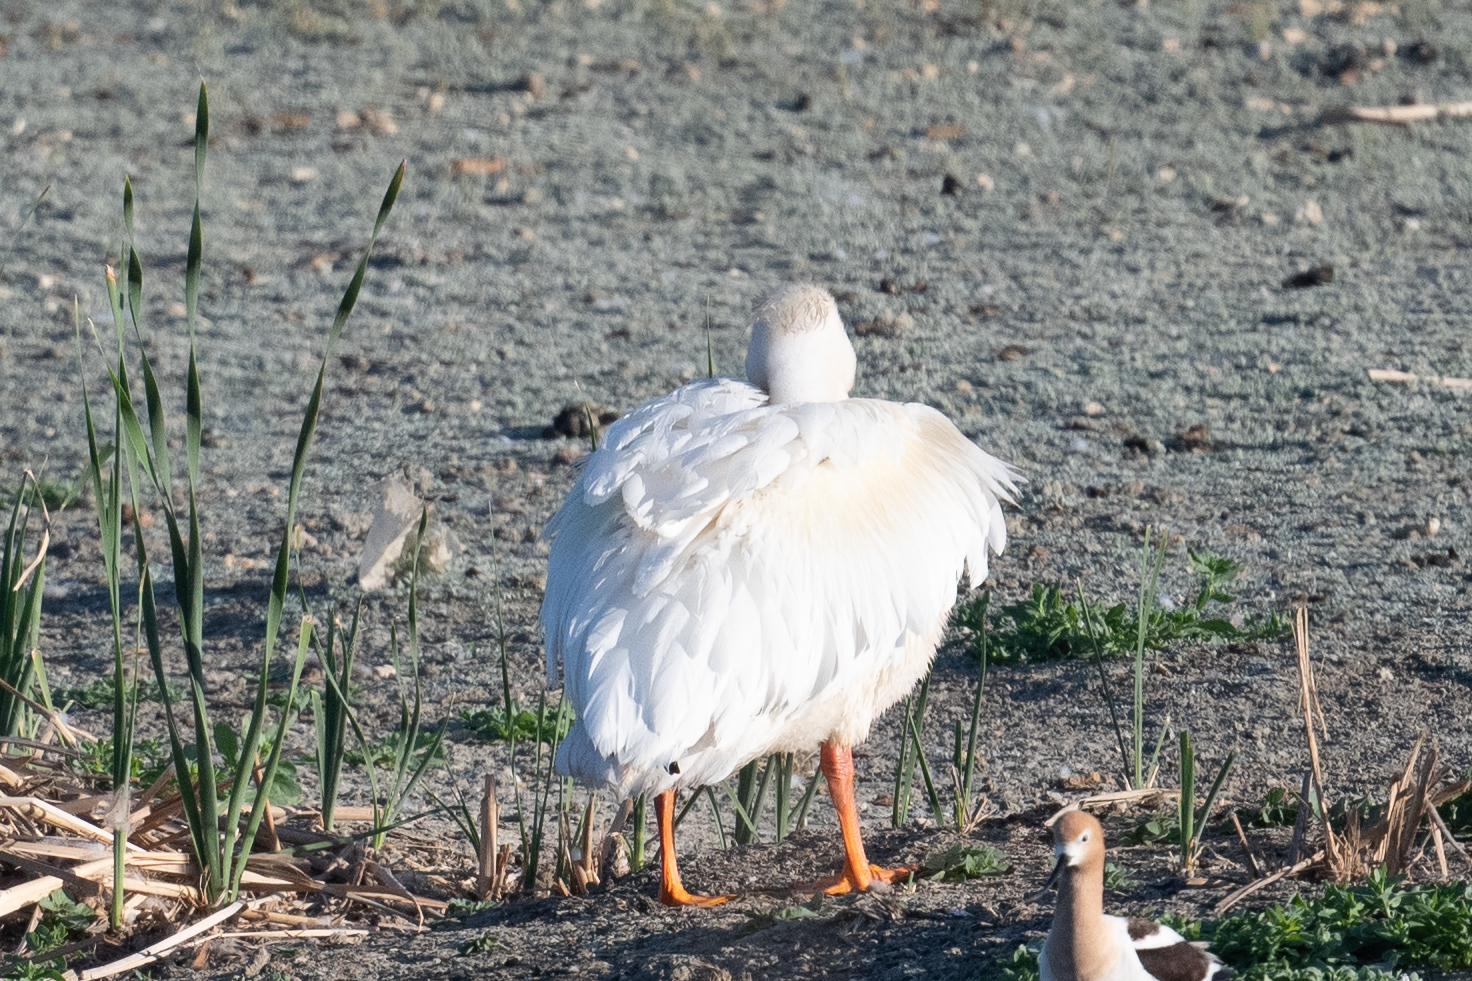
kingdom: Animalia
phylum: Chordata
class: Aves
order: Pelecaniformes
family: Pelecanidae
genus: Pelecanus
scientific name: Pelecanus erythrorhynchos
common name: American white pelican
